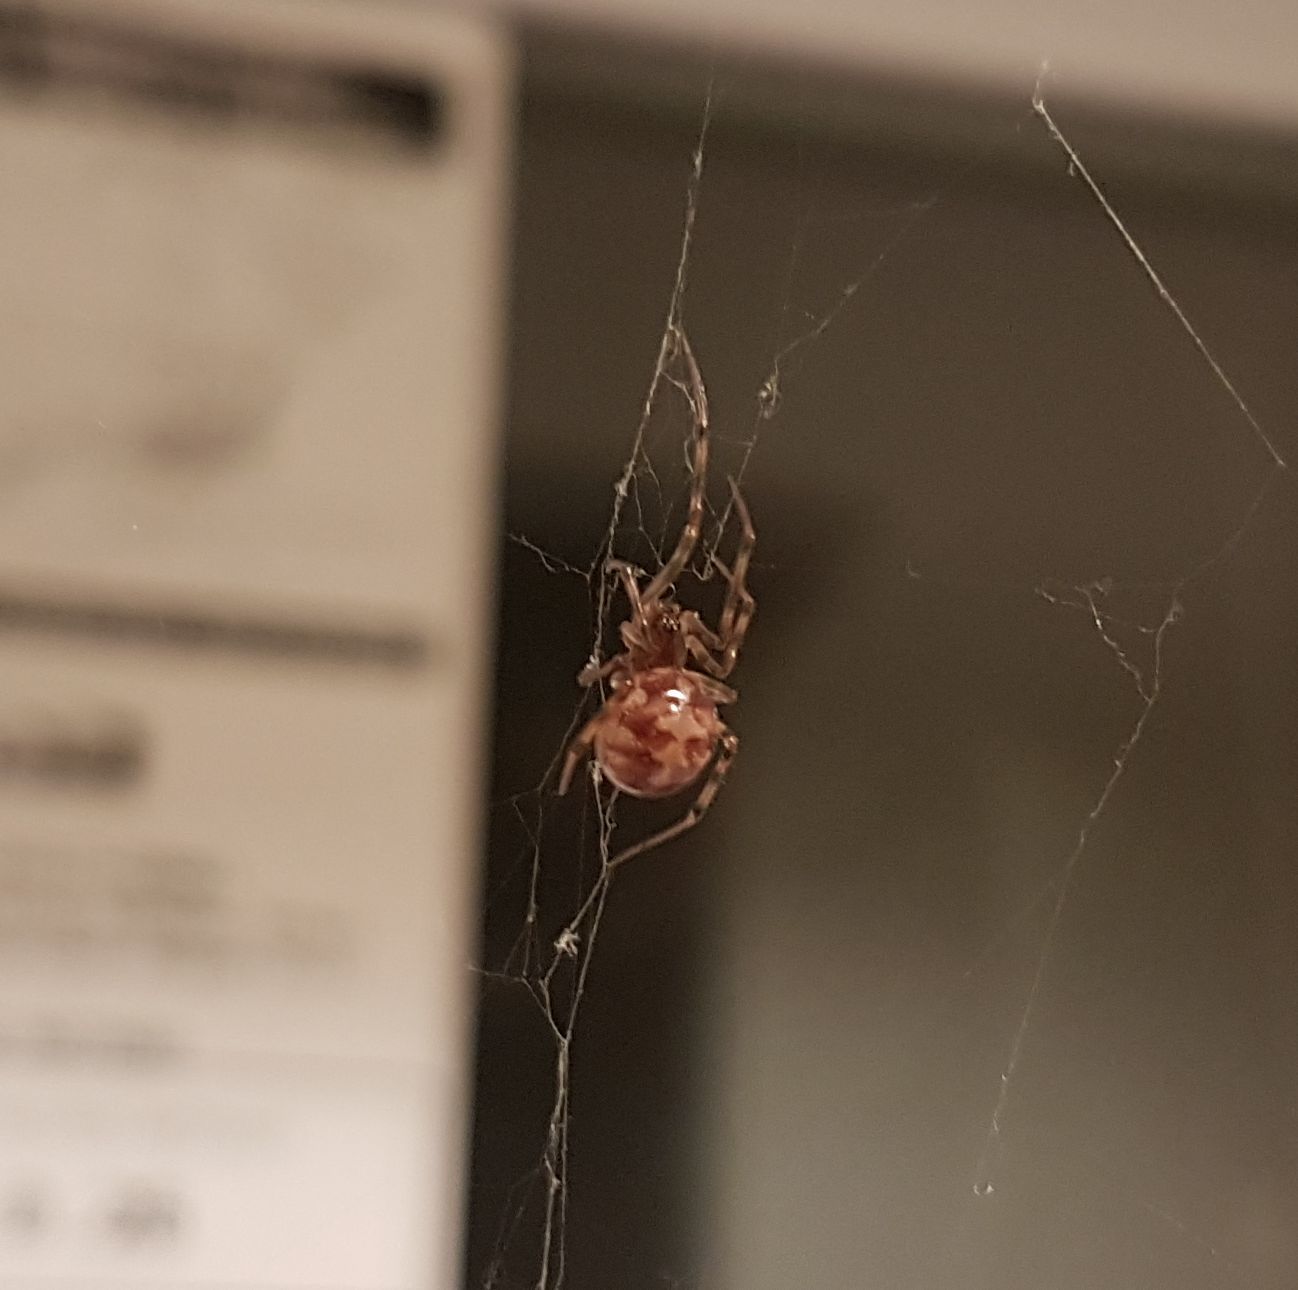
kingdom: Animalia
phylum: Arthropoda
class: Arachnida
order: Araneae
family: Theridiidae
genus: Steatoda
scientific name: Steatoda triangulosa
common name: Triangulate bud spider
